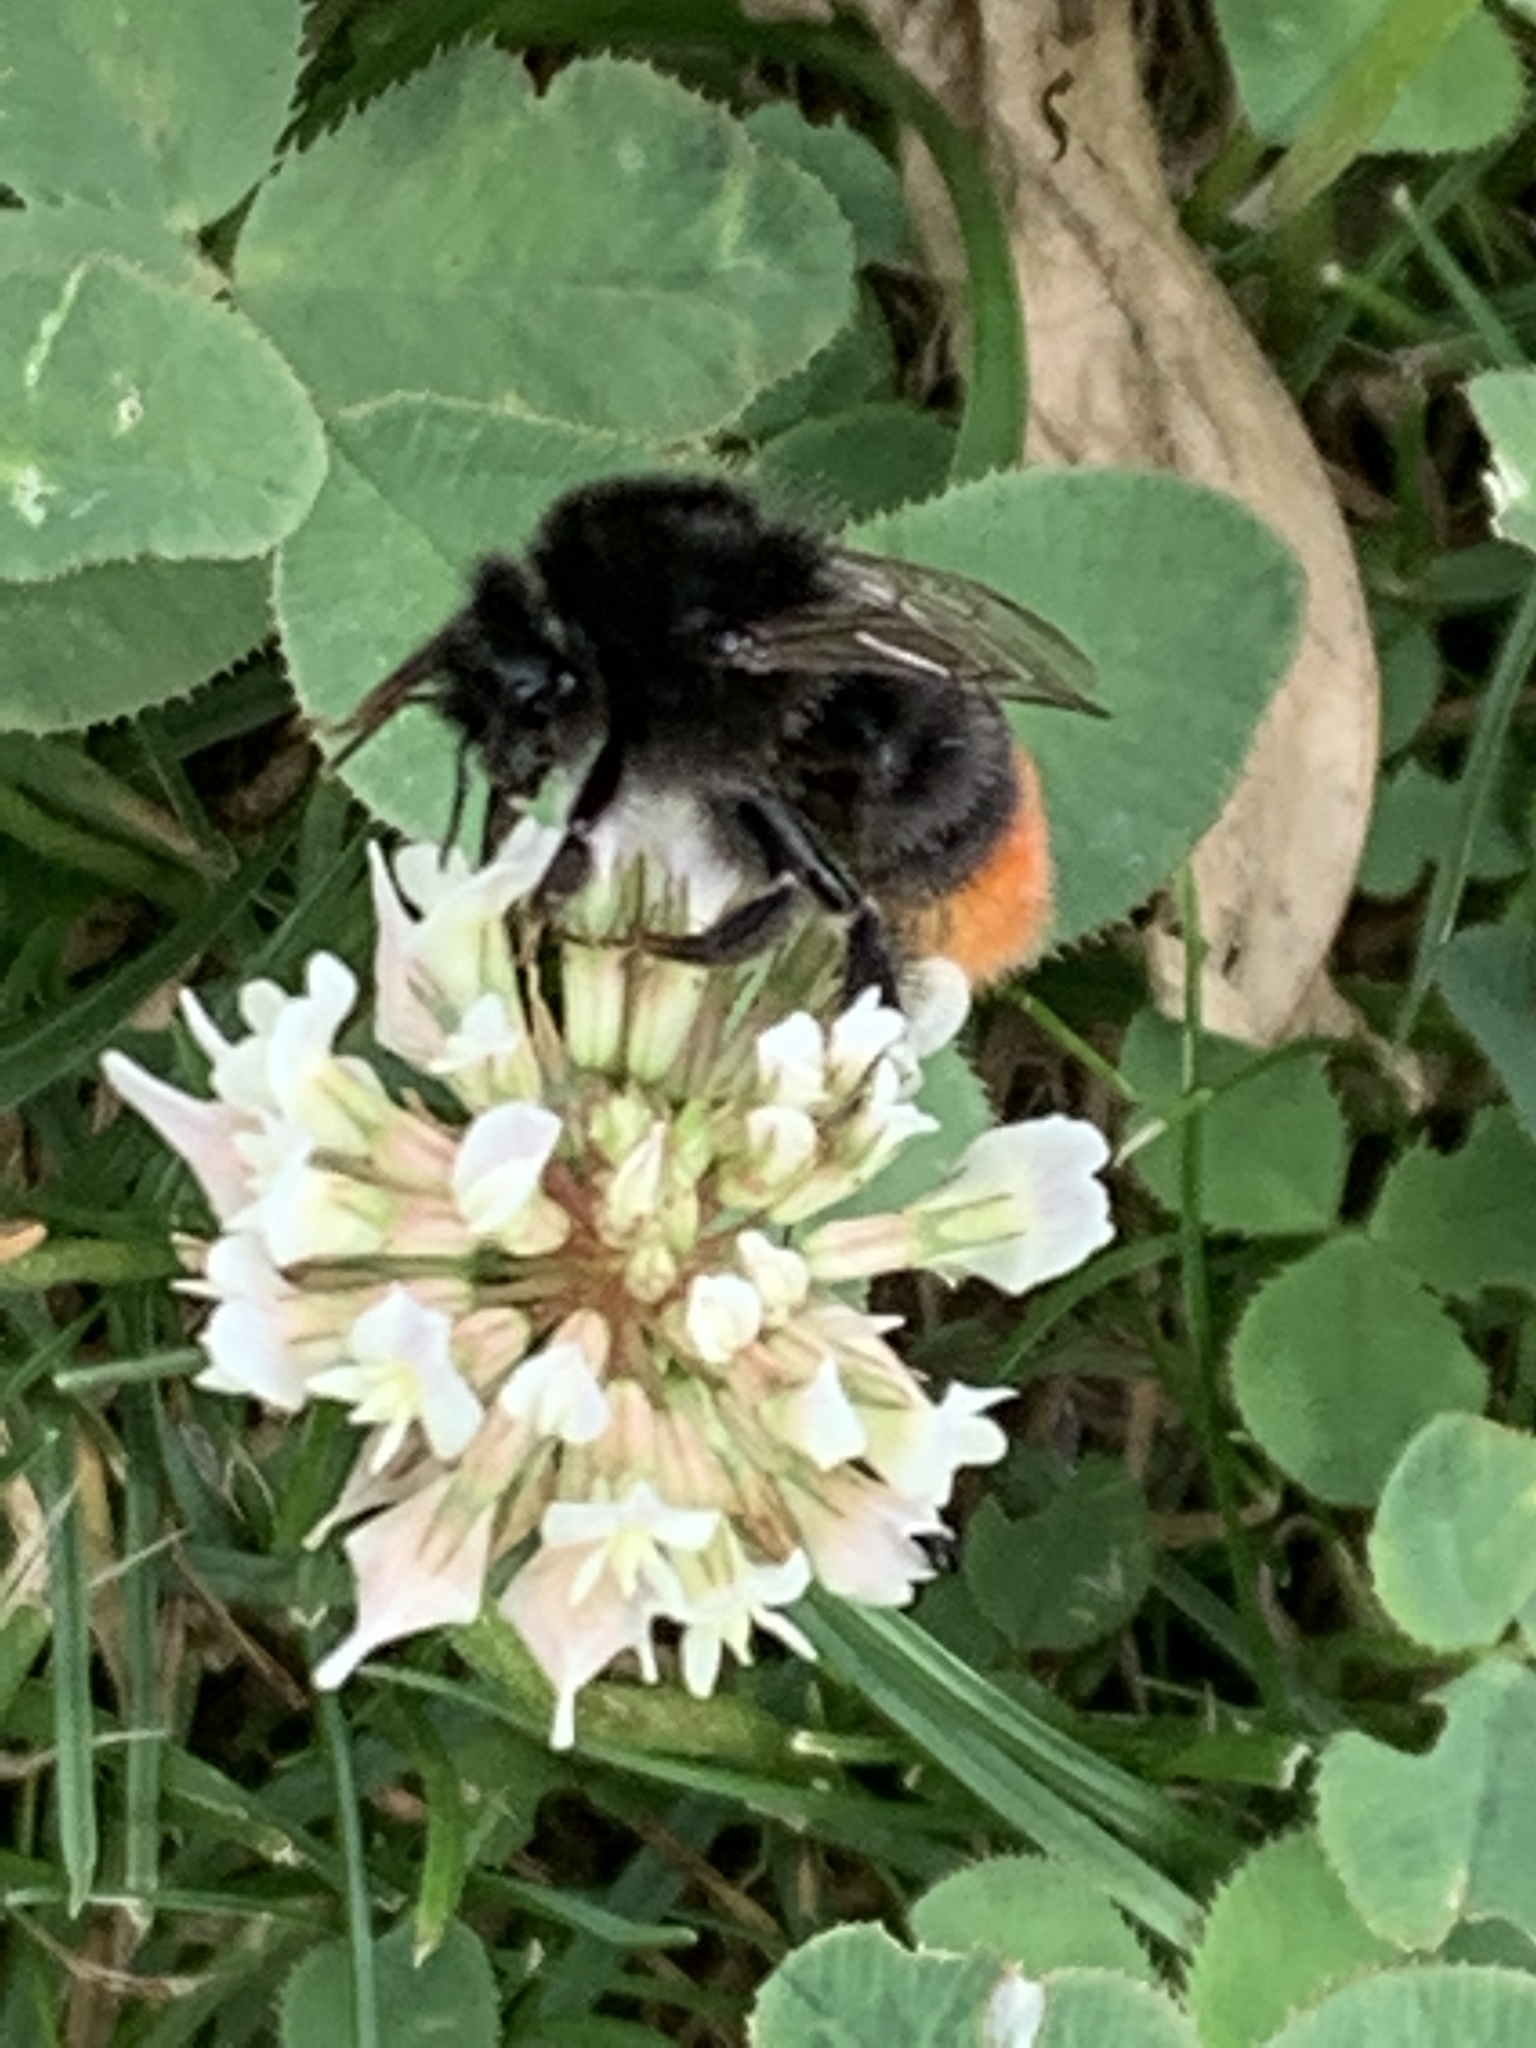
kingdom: Plantae
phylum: Tracheophyta
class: Magnoliopsida
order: Fabales
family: Fabaceae
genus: Trifolium
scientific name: Trifolium repens
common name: White clover
